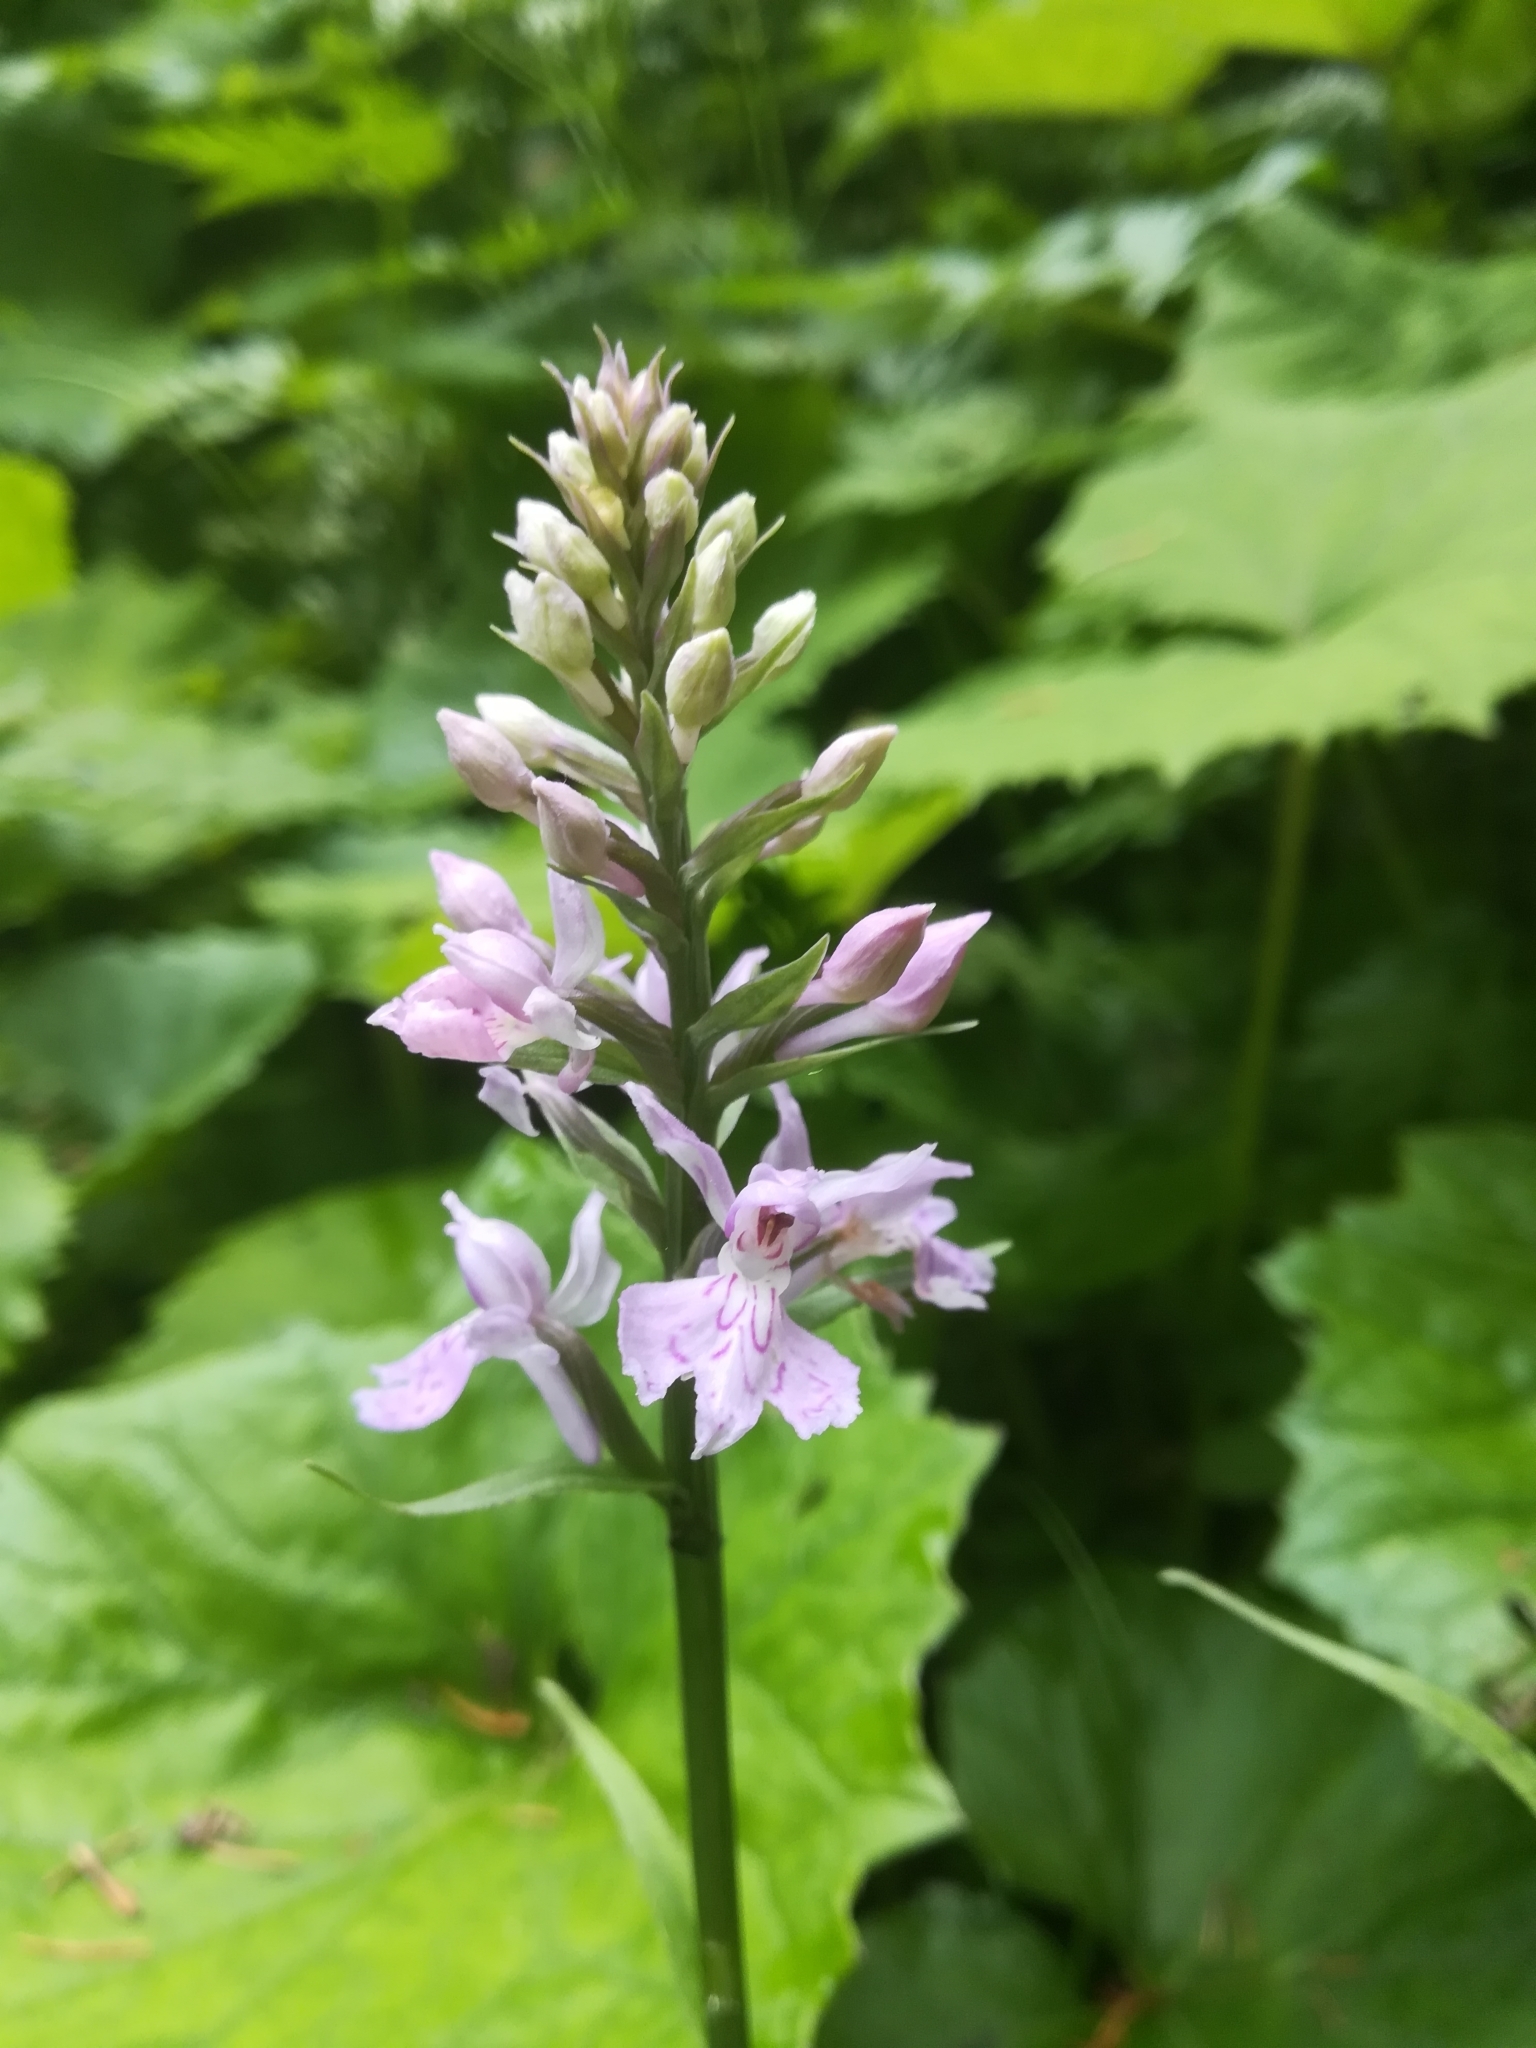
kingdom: Plantae
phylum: Tracheophyta
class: Liliopsida
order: Asparagales
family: Orchidaceae
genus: Dactylorhiza
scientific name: Dactylorhiza maculata
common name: Heath spotted-orchid
